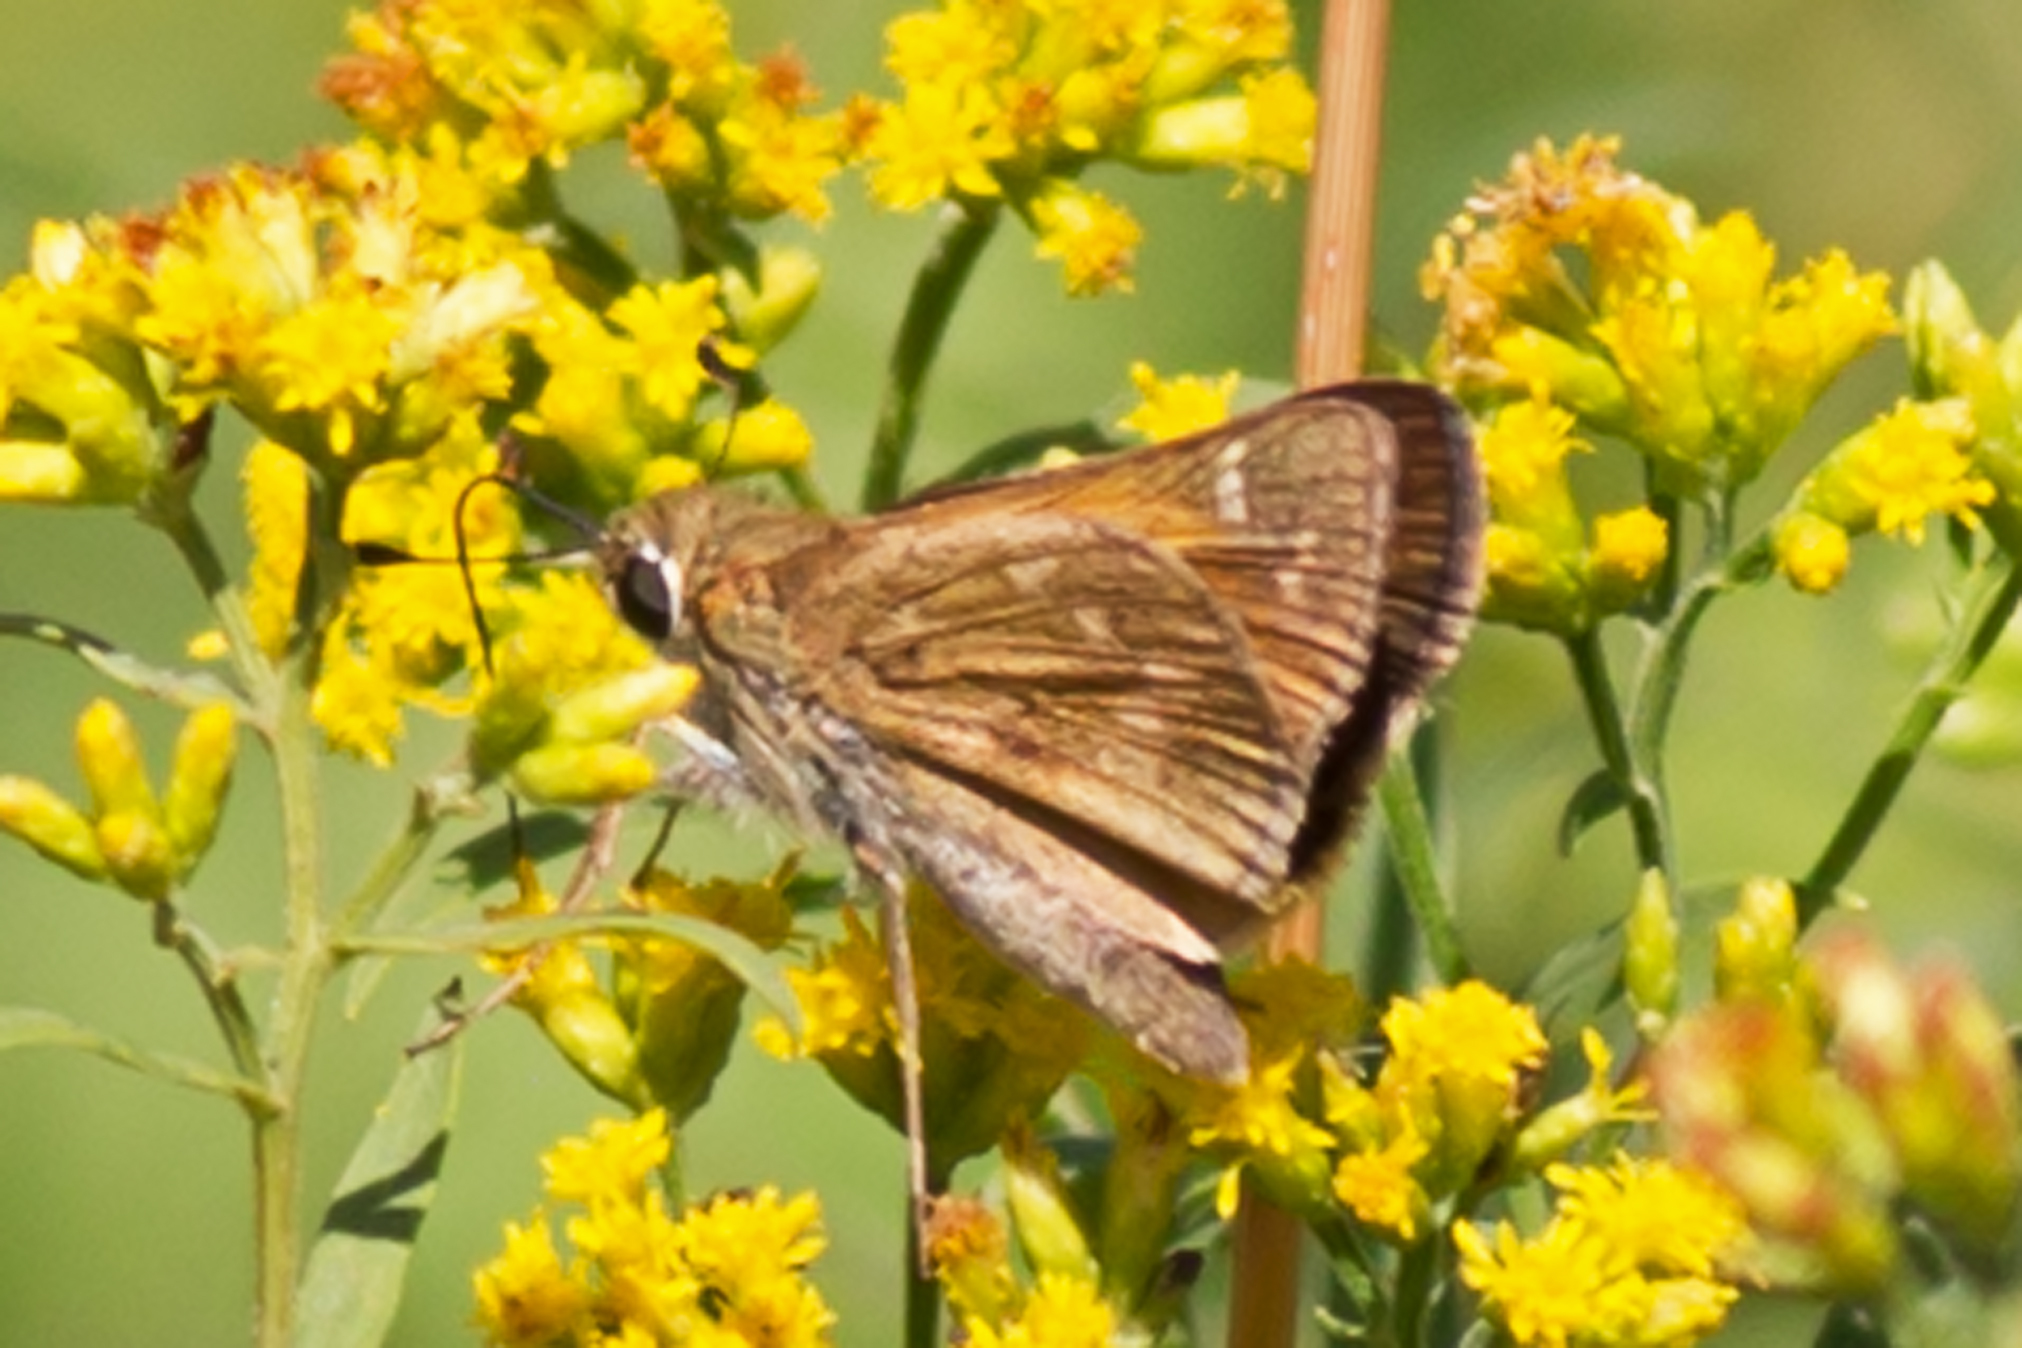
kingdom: Animalia
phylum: Arthropoda
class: Insecta
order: Lepidoptera
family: Hesperiidae
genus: Atalopedes
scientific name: Atalopedes
